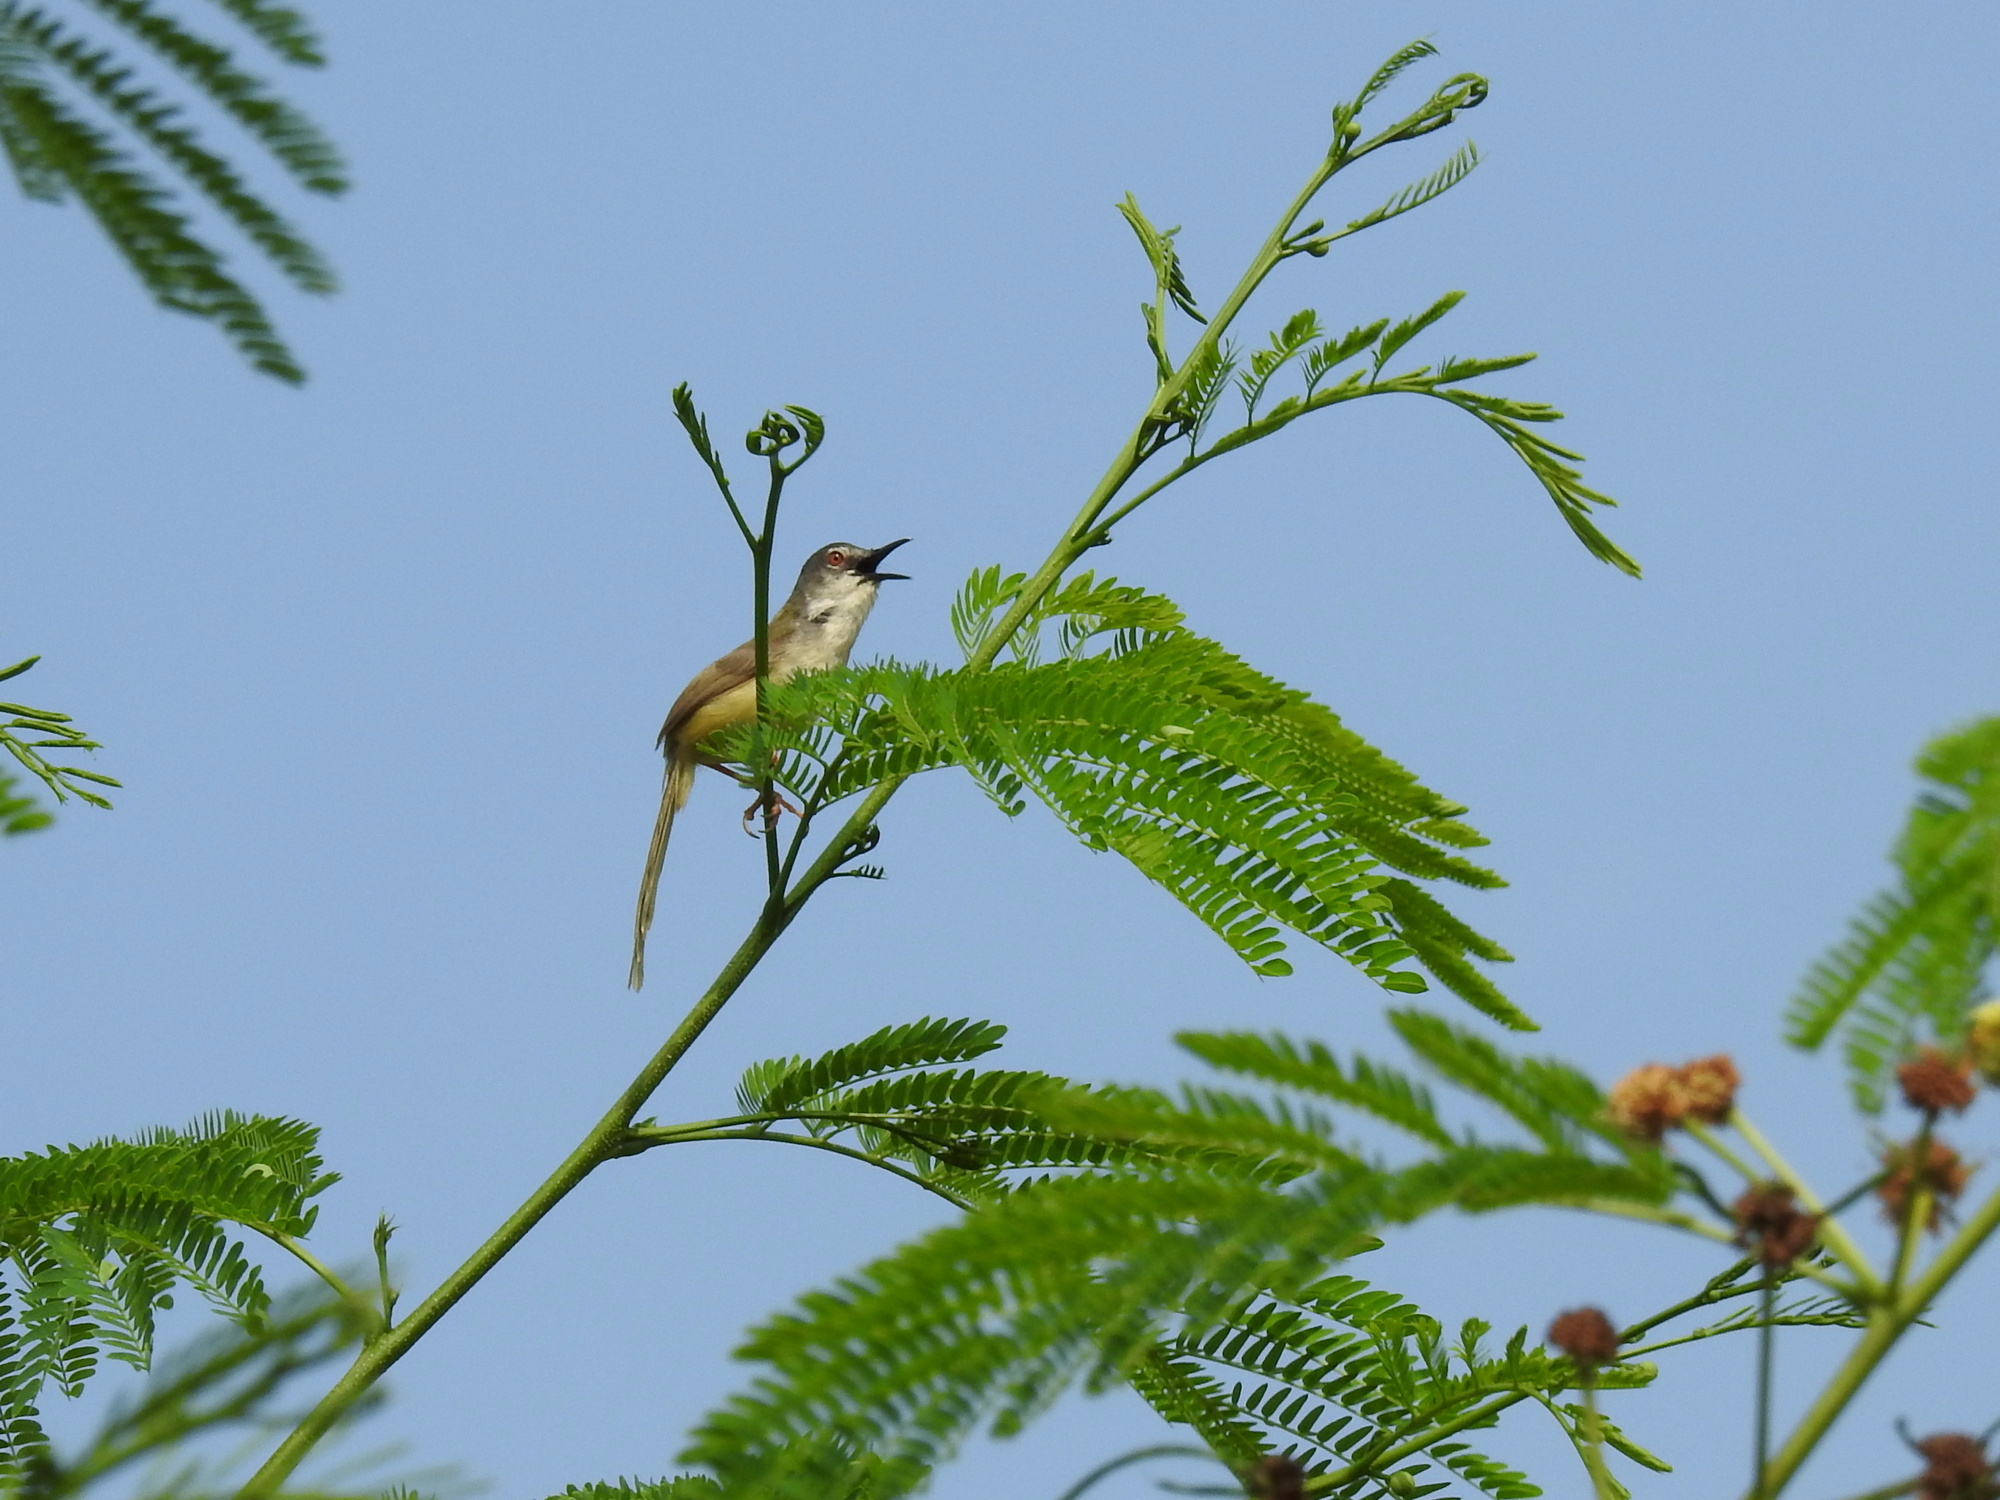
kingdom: Animalia
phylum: Chordata
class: Aves
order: Passeriformes
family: Cisticolidae
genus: Prinia
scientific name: Prinia flaviventris
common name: Yellow-bellied prinia
